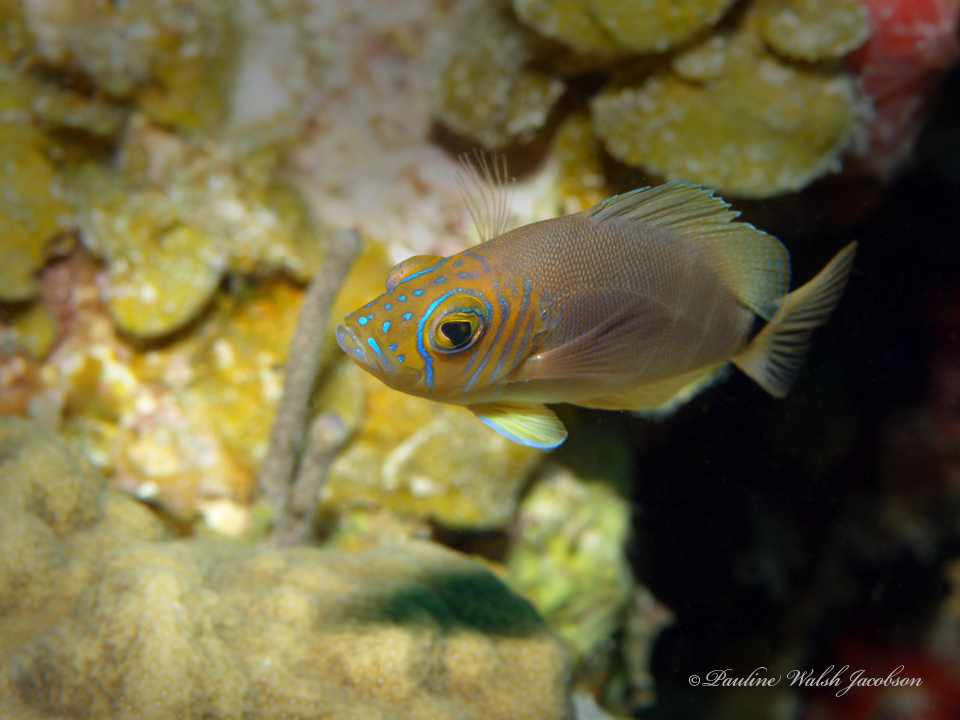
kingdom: Animalia
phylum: Chordata
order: Perciformes
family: Serranidae
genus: Hypoplectrus
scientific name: Hypoplectrus unicolor
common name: Butter hamlet
